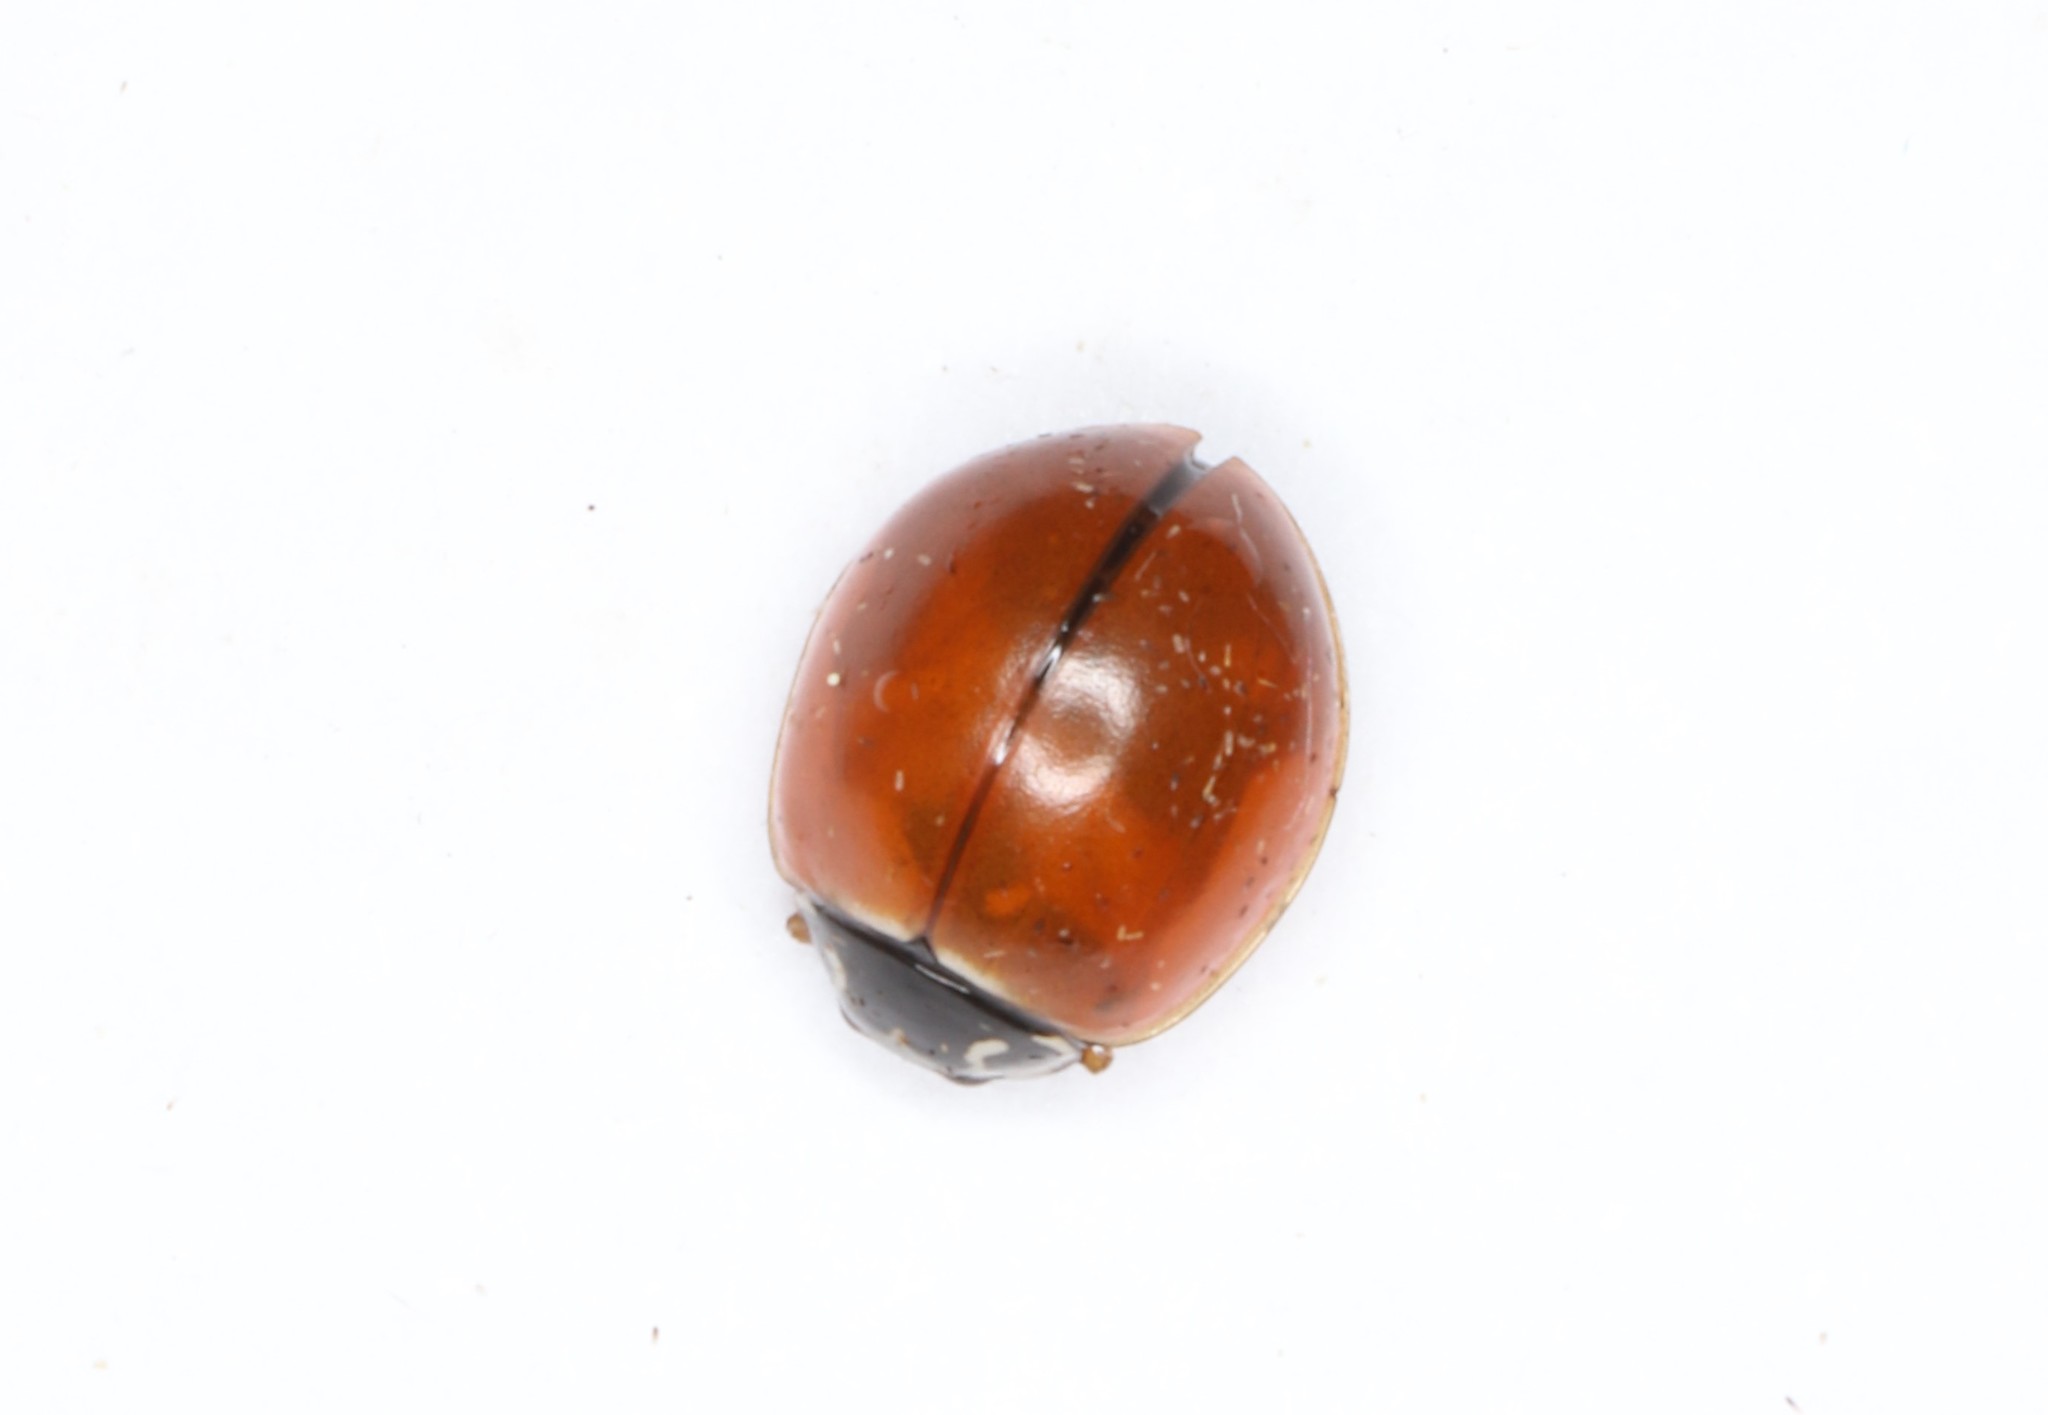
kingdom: Animalia
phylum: Arthropoda
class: Insecta
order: Coleoptera
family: Coccinellidae
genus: Cycloneda
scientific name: Cycloneda munda
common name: Polished lady beetle
